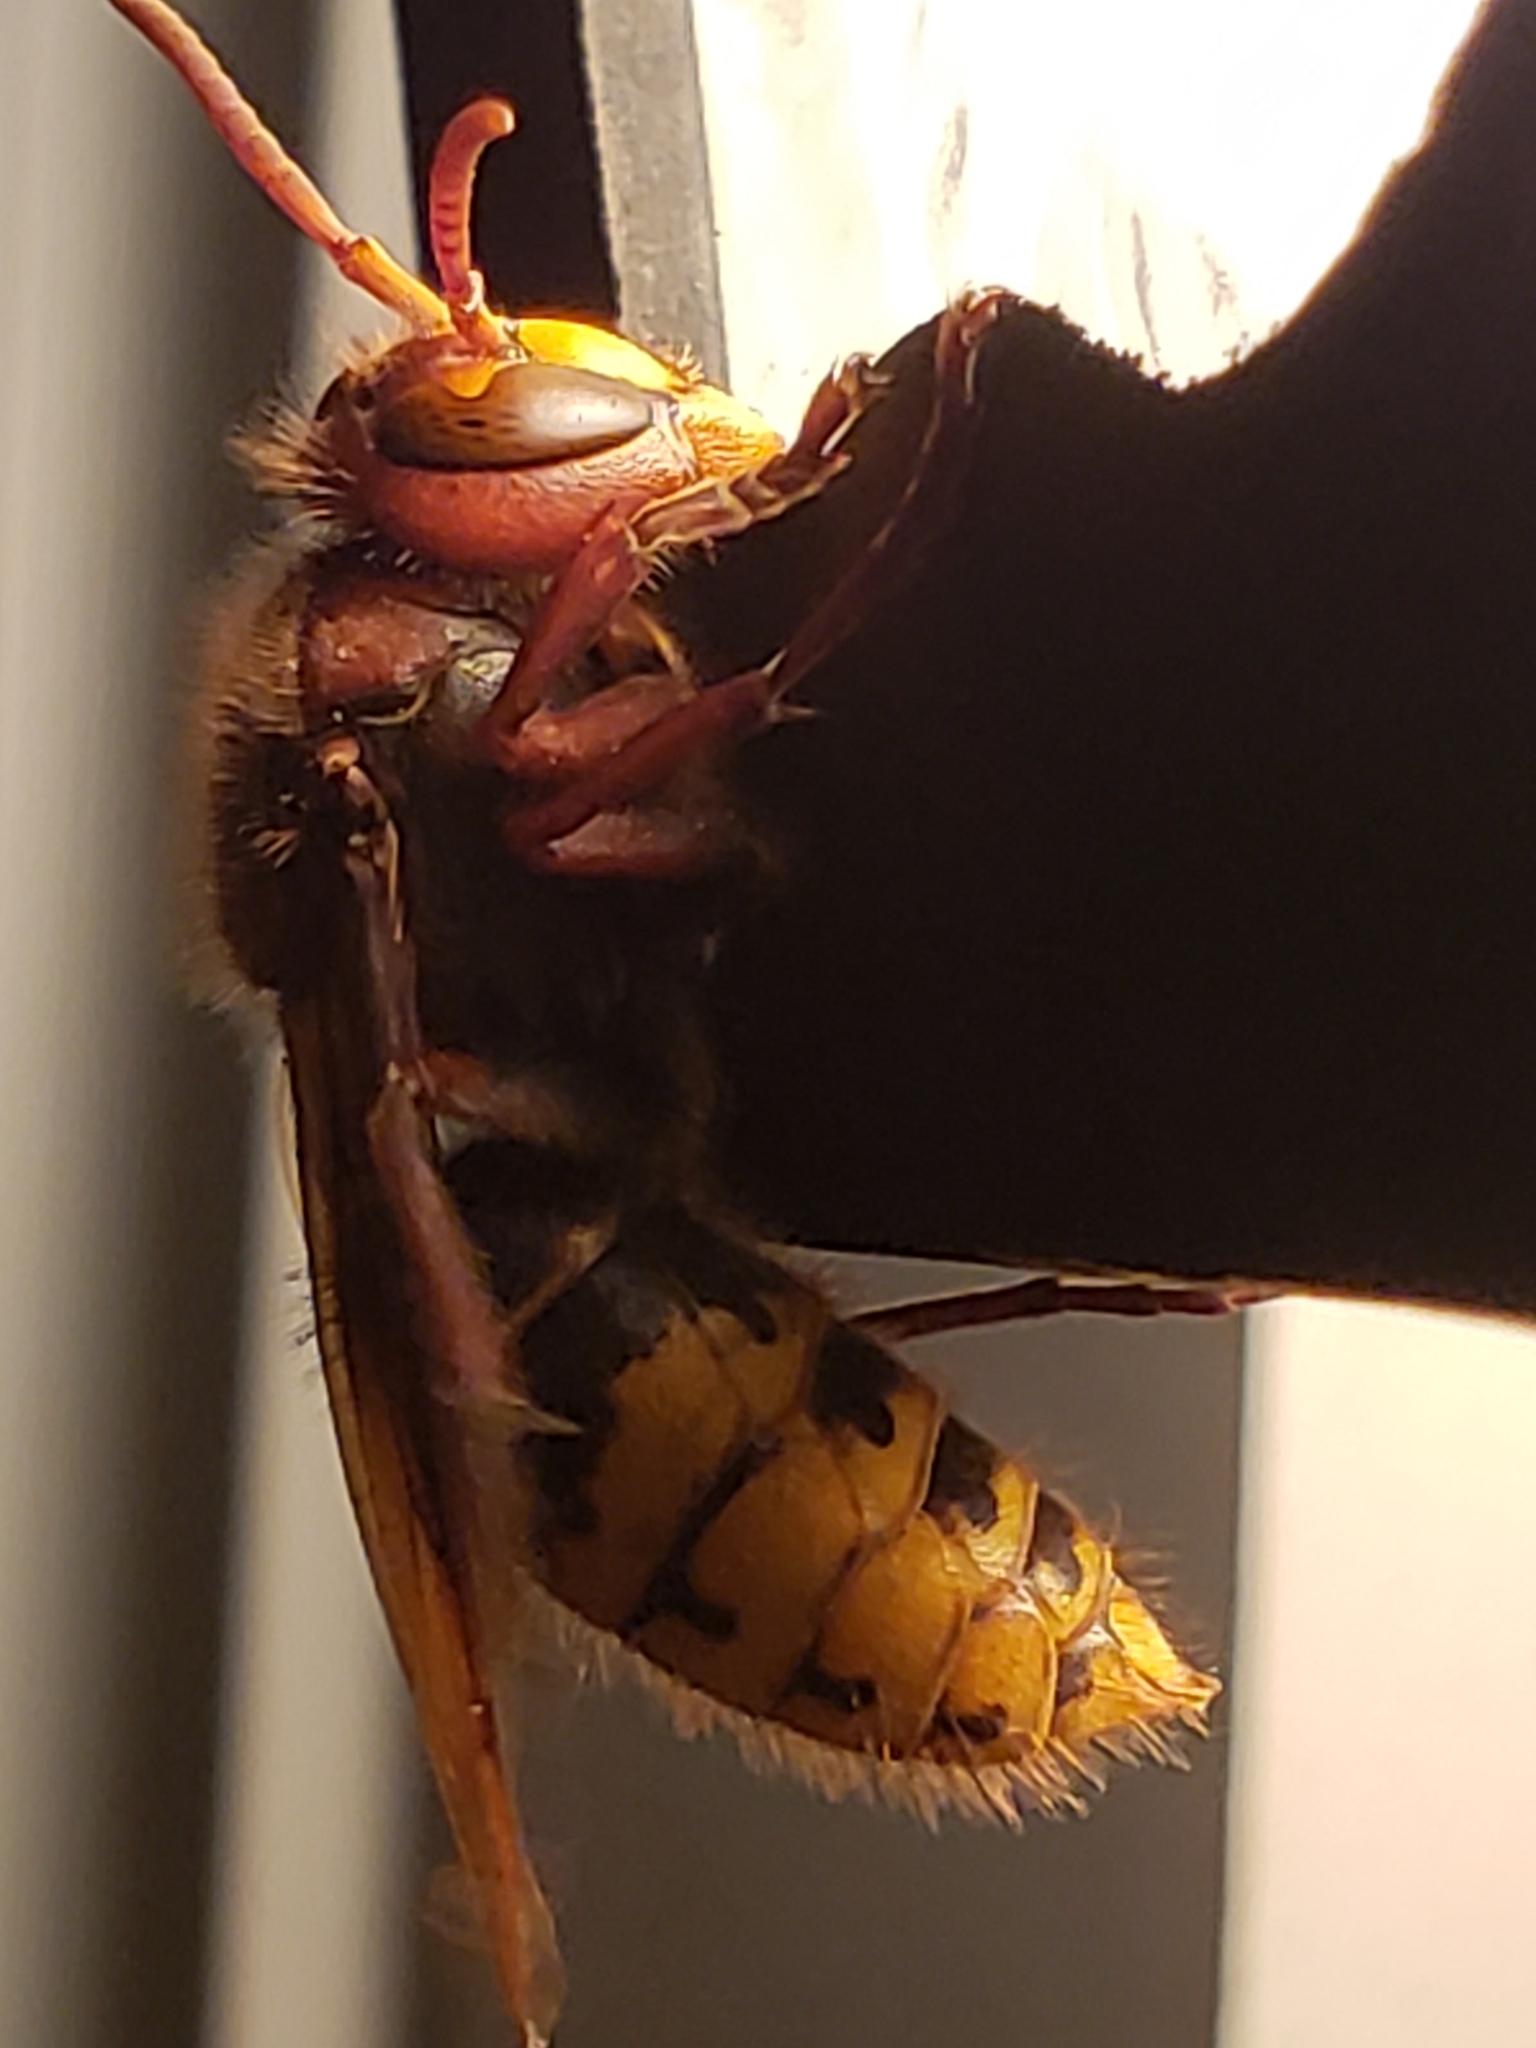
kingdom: Animalia
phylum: Arthropoda
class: Insecta
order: Hymenoptera
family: Vespidae
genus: Vespa
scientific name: Vespa crabro
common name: Hornet
